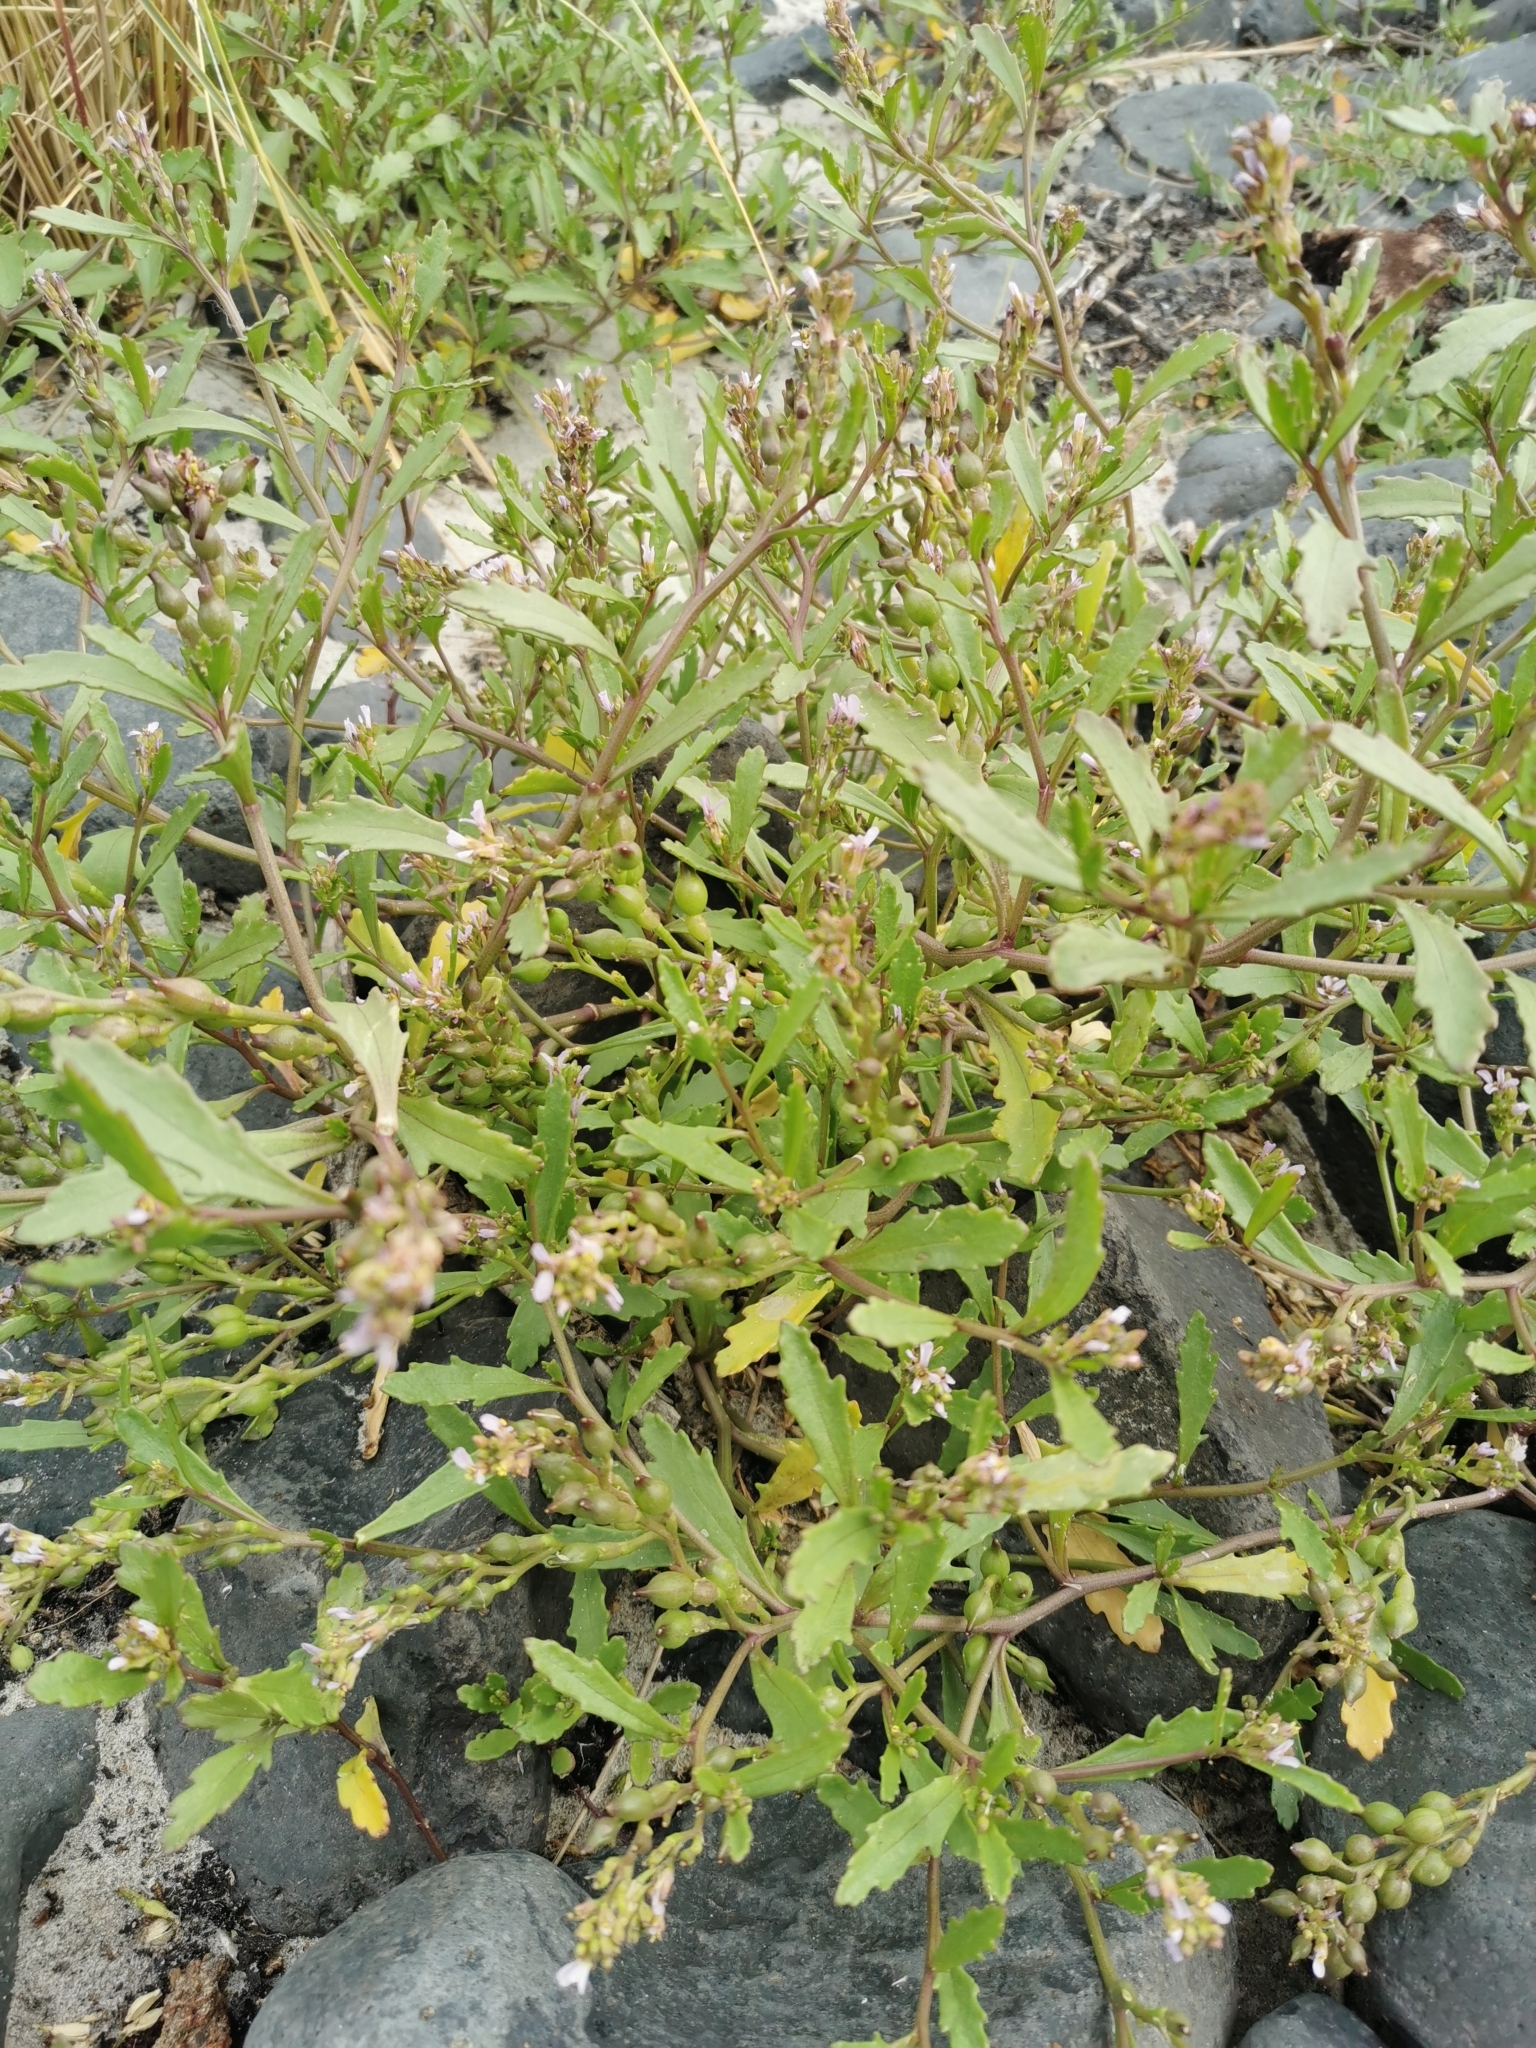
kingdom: Plantae
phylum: Tracheophyta
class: Magnoliopsida
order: Brassicales
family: Brassicaceae
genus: Cakile
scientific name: Cakile edentula
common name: American sea rocket
